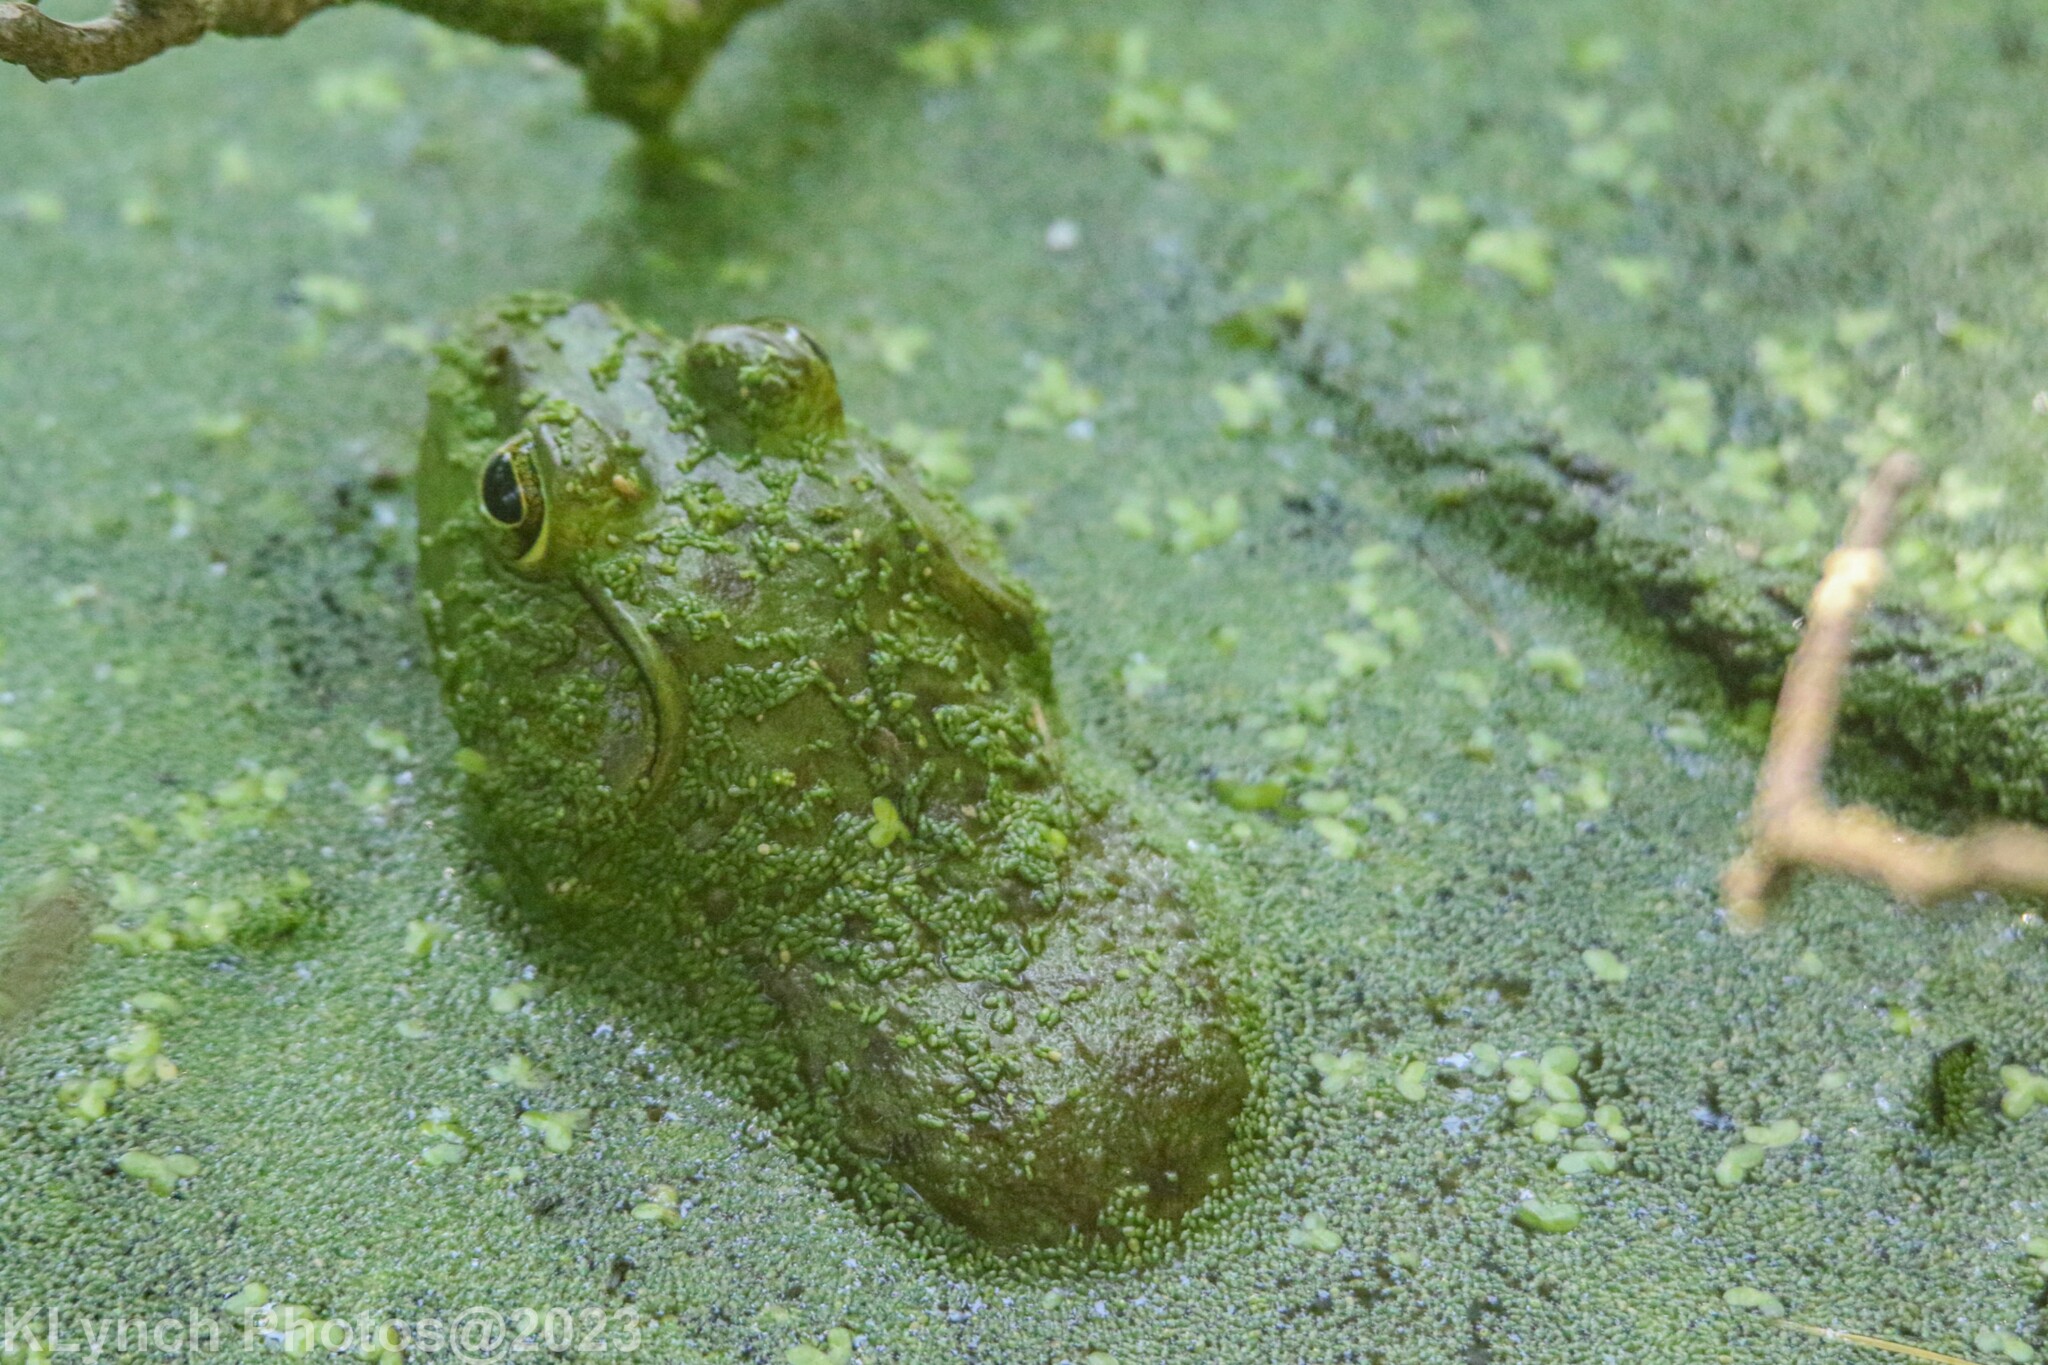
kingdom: Animalia
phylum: Chordata
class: Amphibia
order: Anura
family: Ranidae
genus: Lithobates
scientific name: Lithobates catesbeianus
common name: American bullfrog
